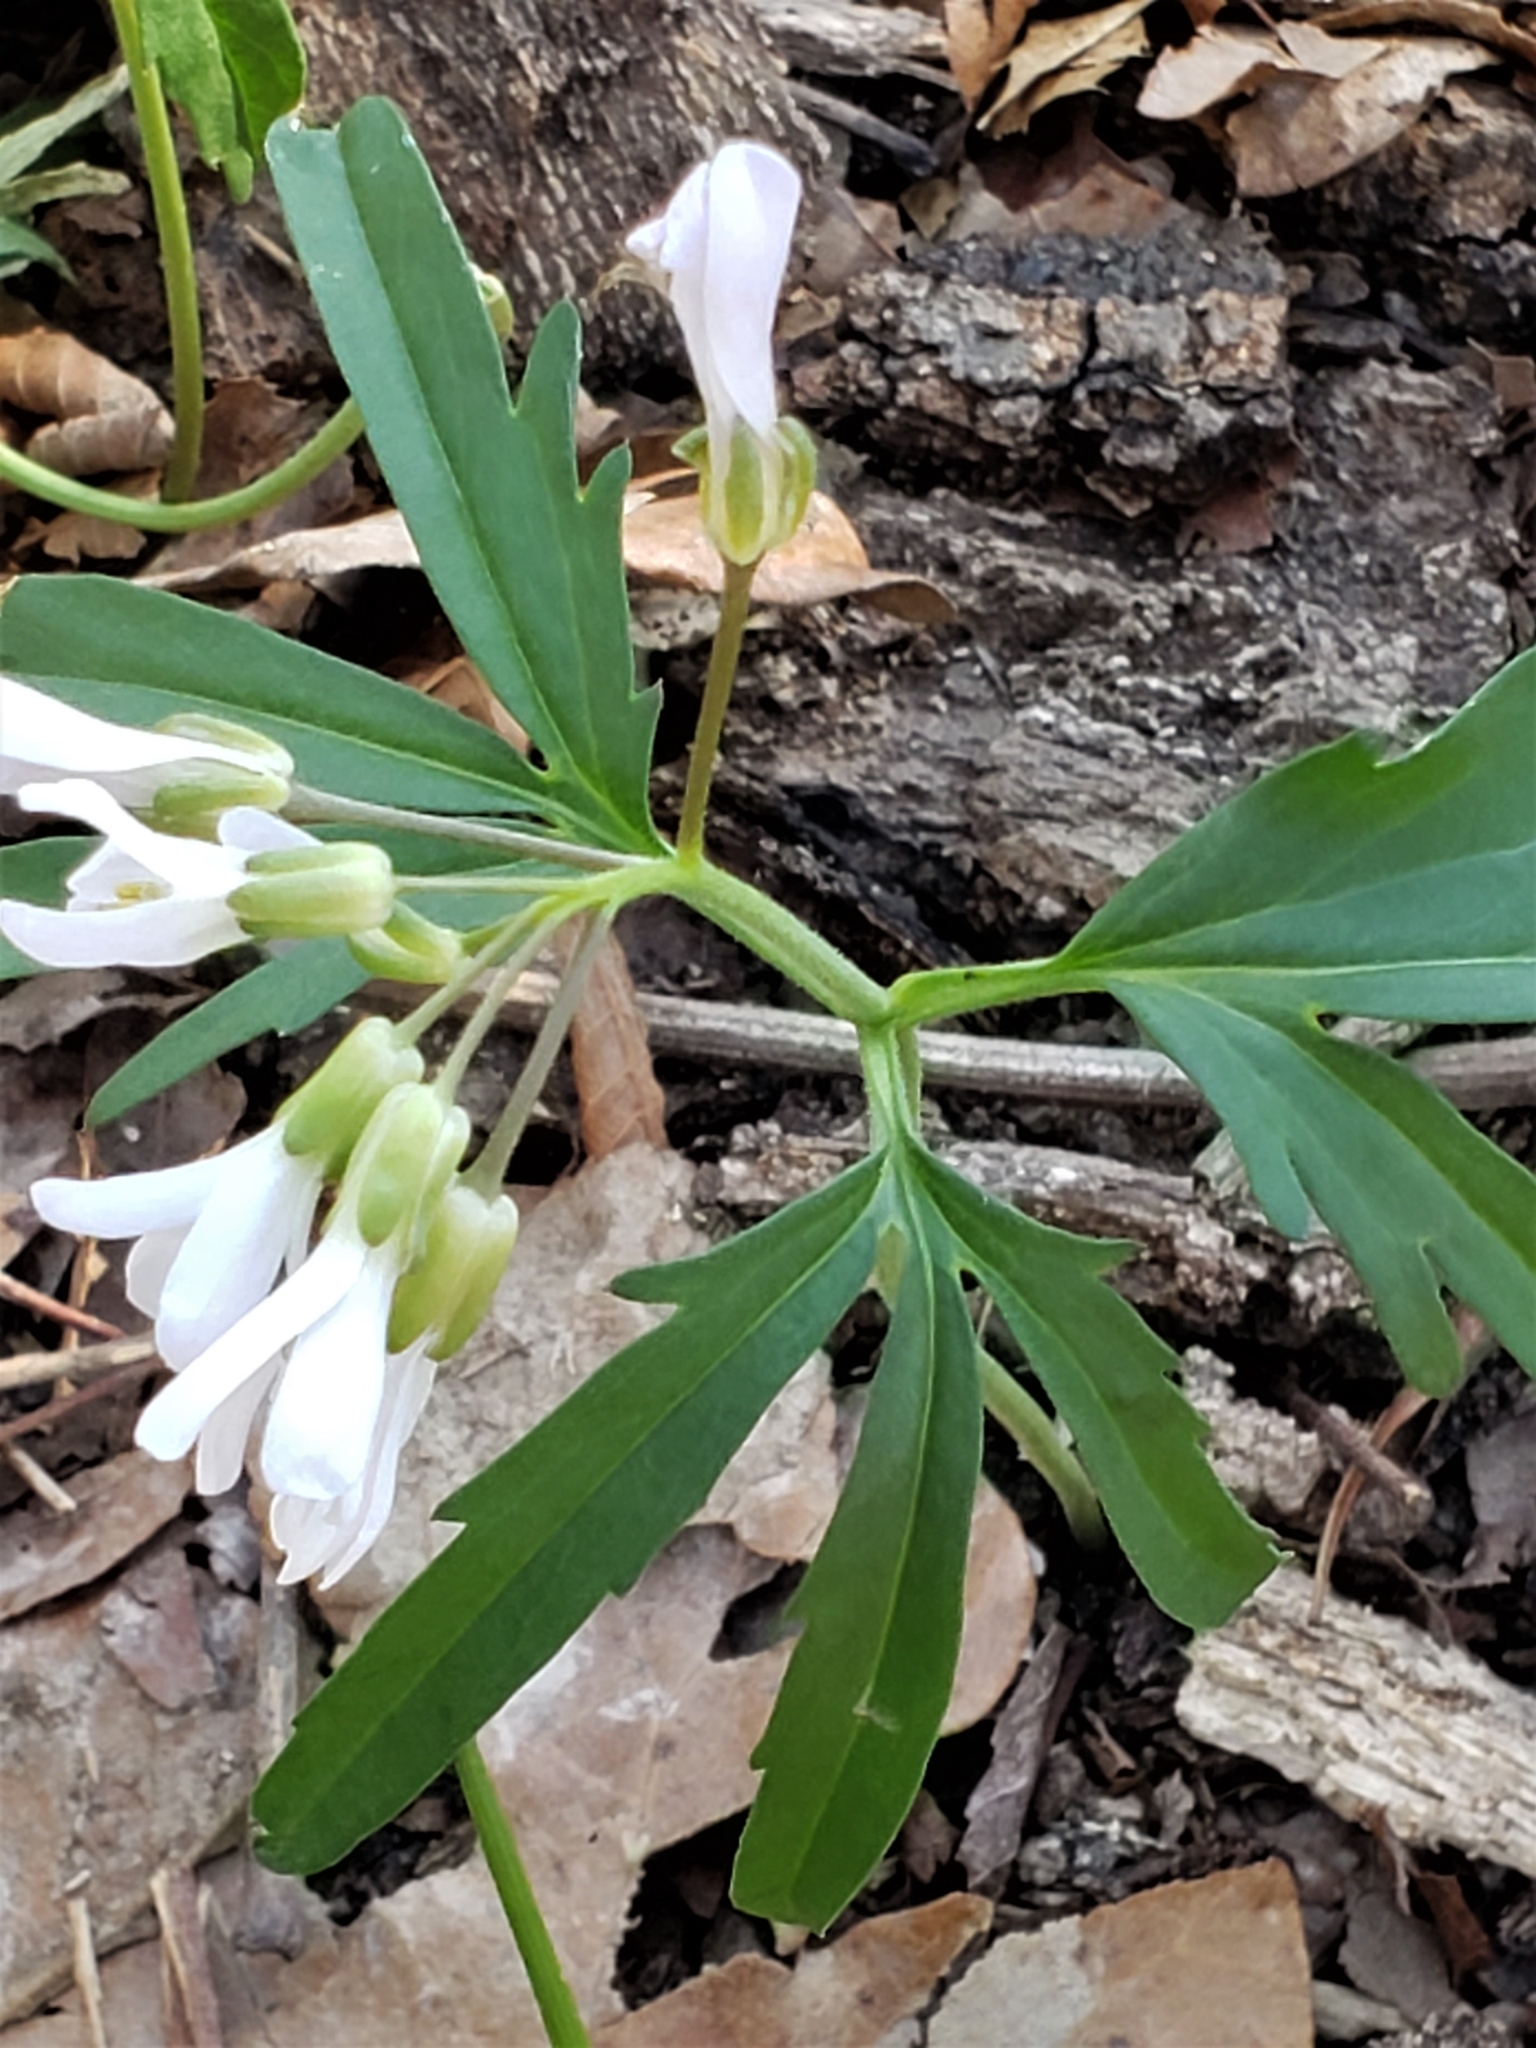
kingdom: Plantae
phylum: Tracheophyta
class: Magnoliopsida
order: Brassicales
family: Brassicaceae
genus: Cardamine
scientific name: Cardamine concatenata
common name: Cut-leaf toothcup
